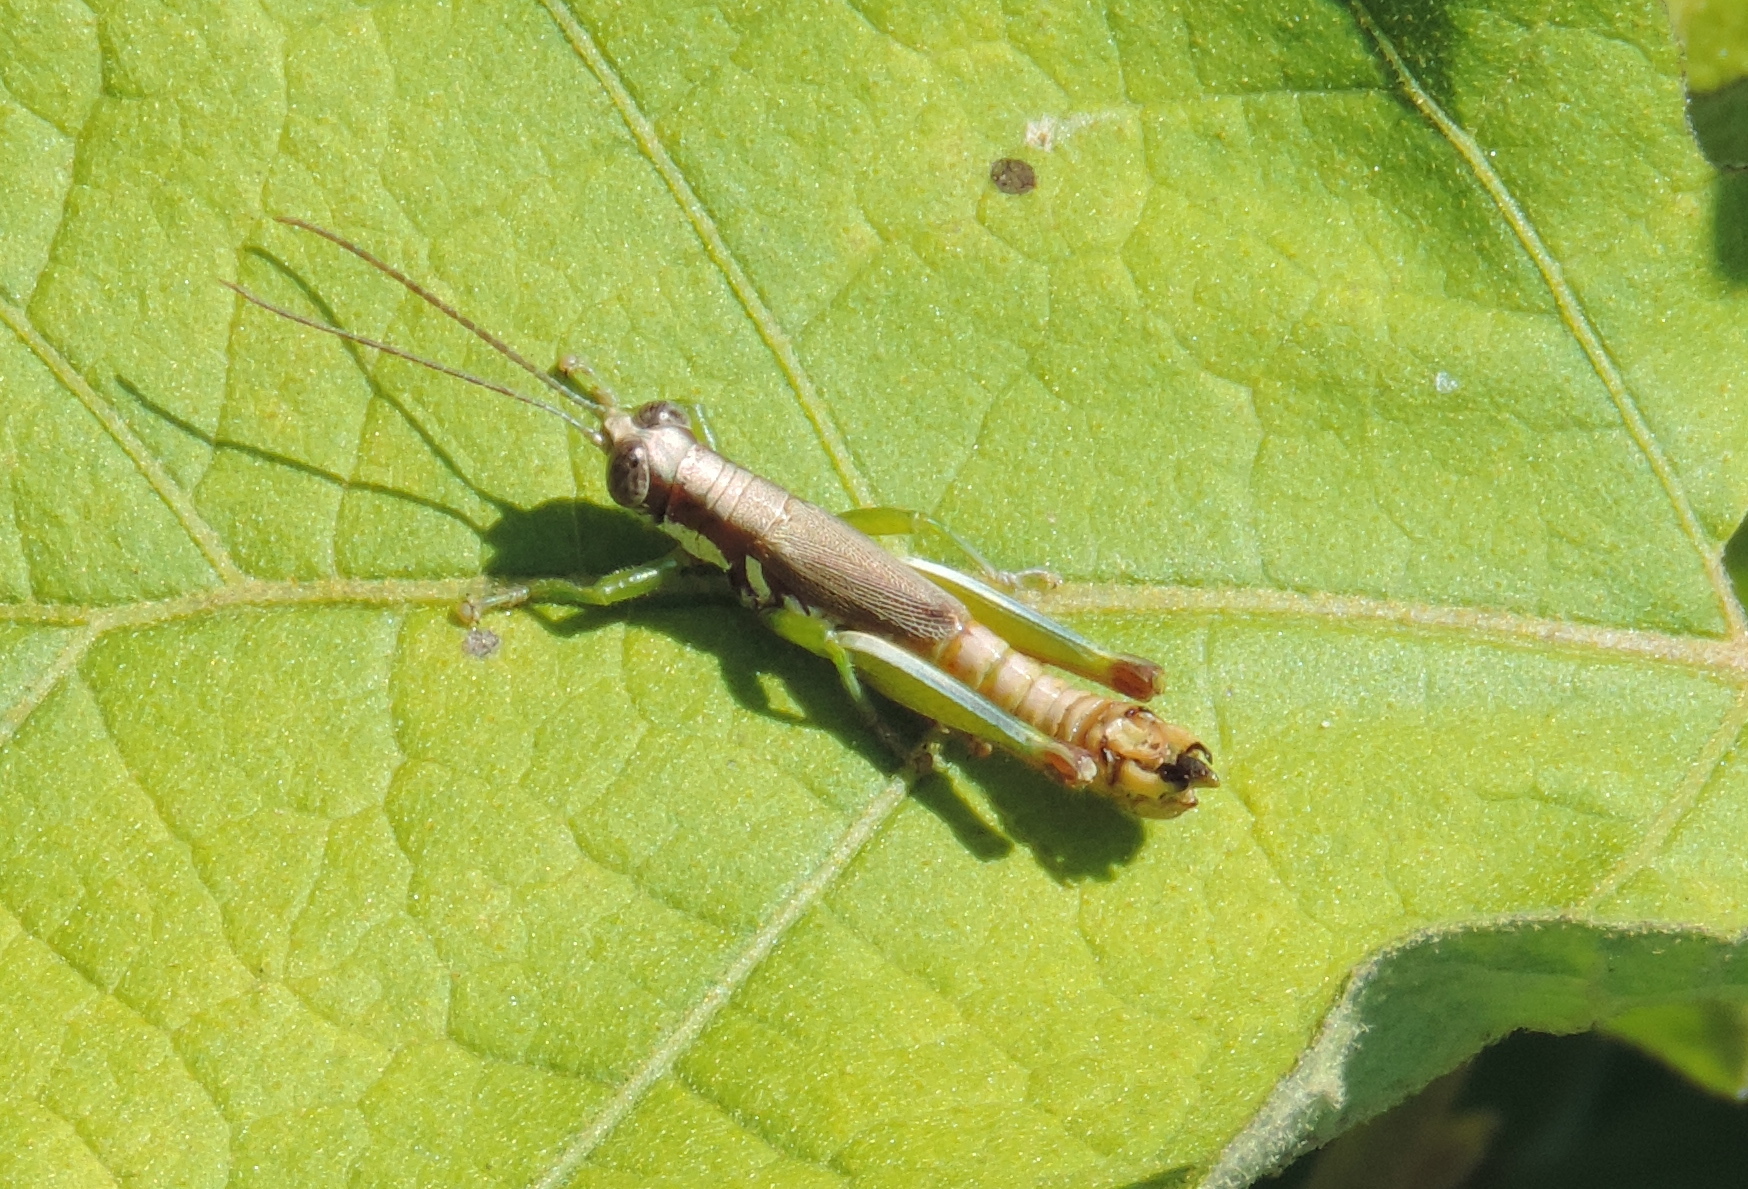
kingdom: Animalia
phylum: Arthropoda
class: Insecta
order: Orthoptera
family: Acrididae
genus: Proctolabus
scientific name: Proctolabus cerciatus
